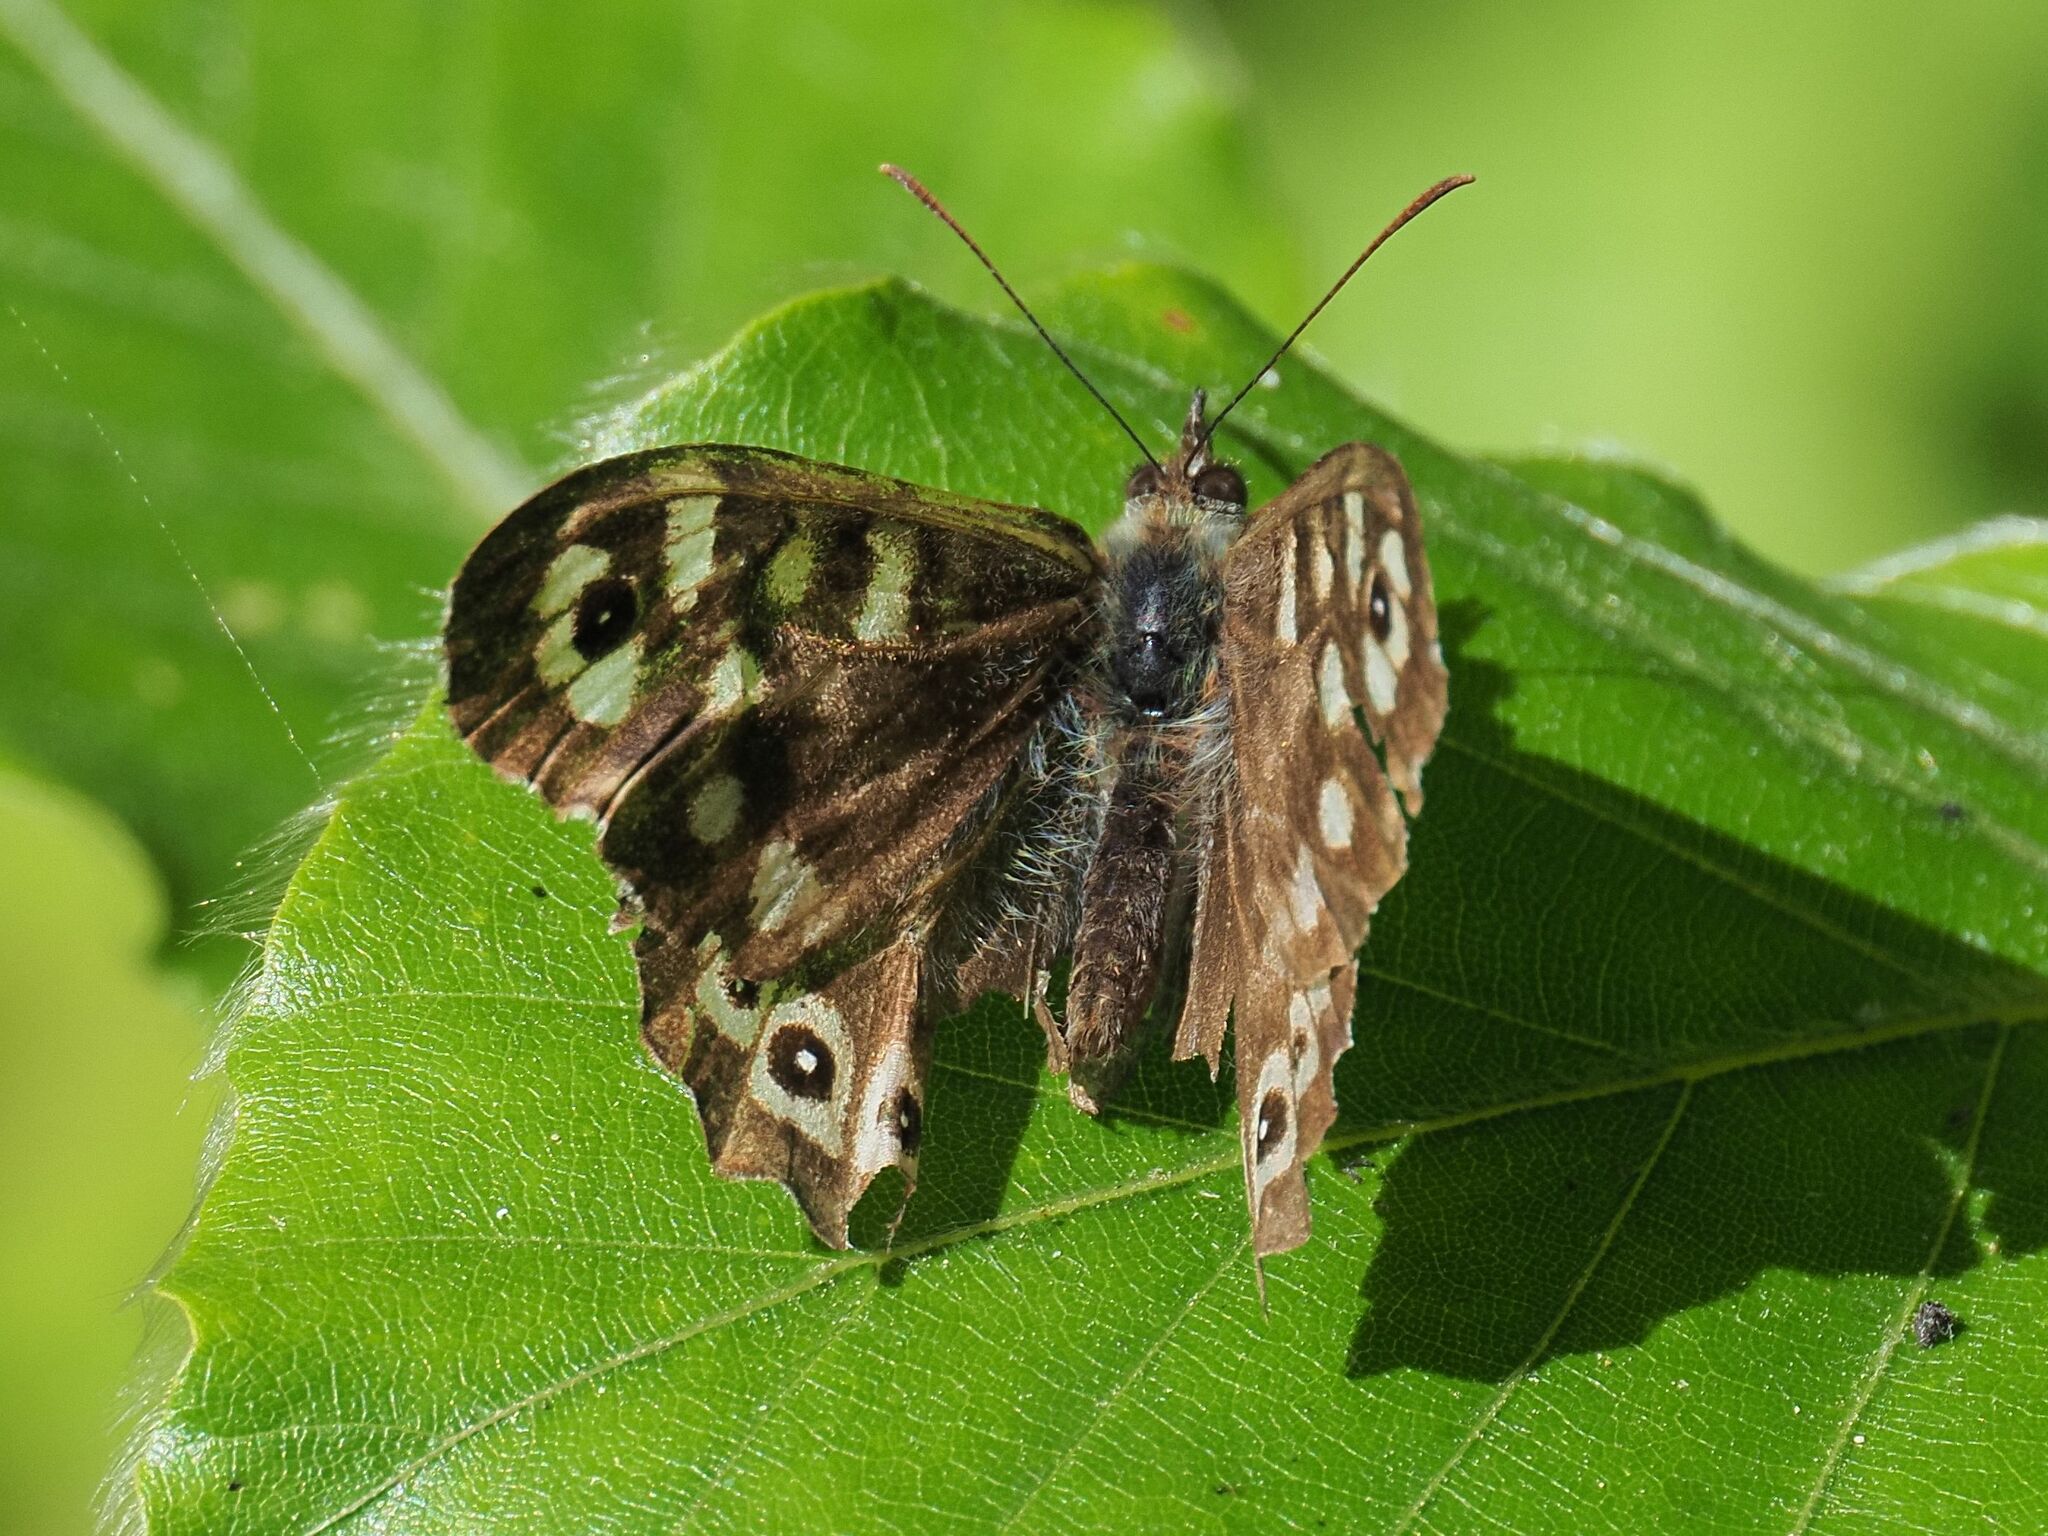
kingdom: Animalia
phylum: Arthropoda
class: Insecta
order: Lepidoptera
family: Nymphalidae
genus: Pararge
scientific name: Pararge aegeria
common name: Speckled wood
